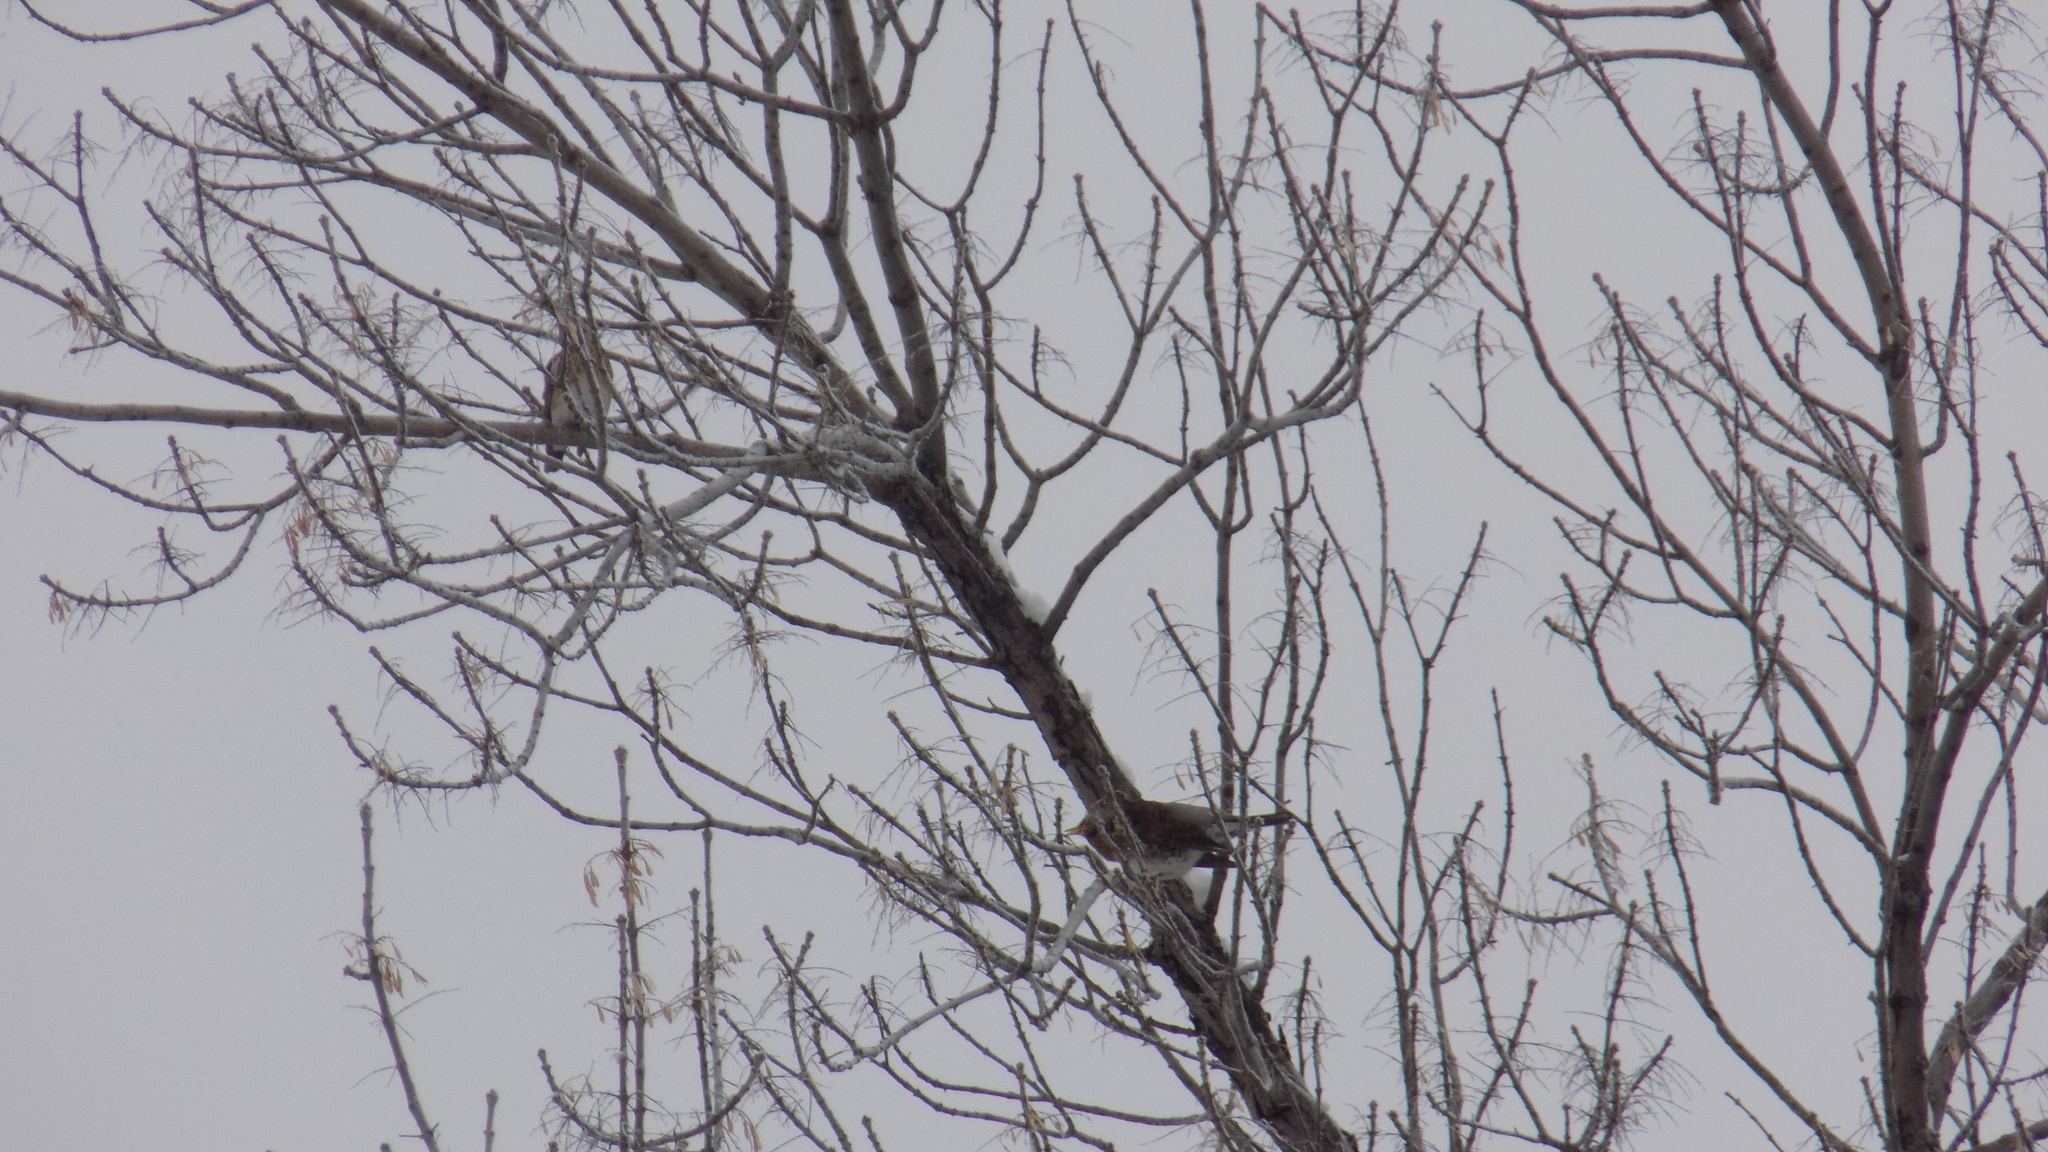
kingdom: Animalia
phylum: Chordata
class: Aves
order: Passeriformes
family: Turdidae
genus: Turdus
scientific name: Turdus pilaris
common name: Fieldfare
